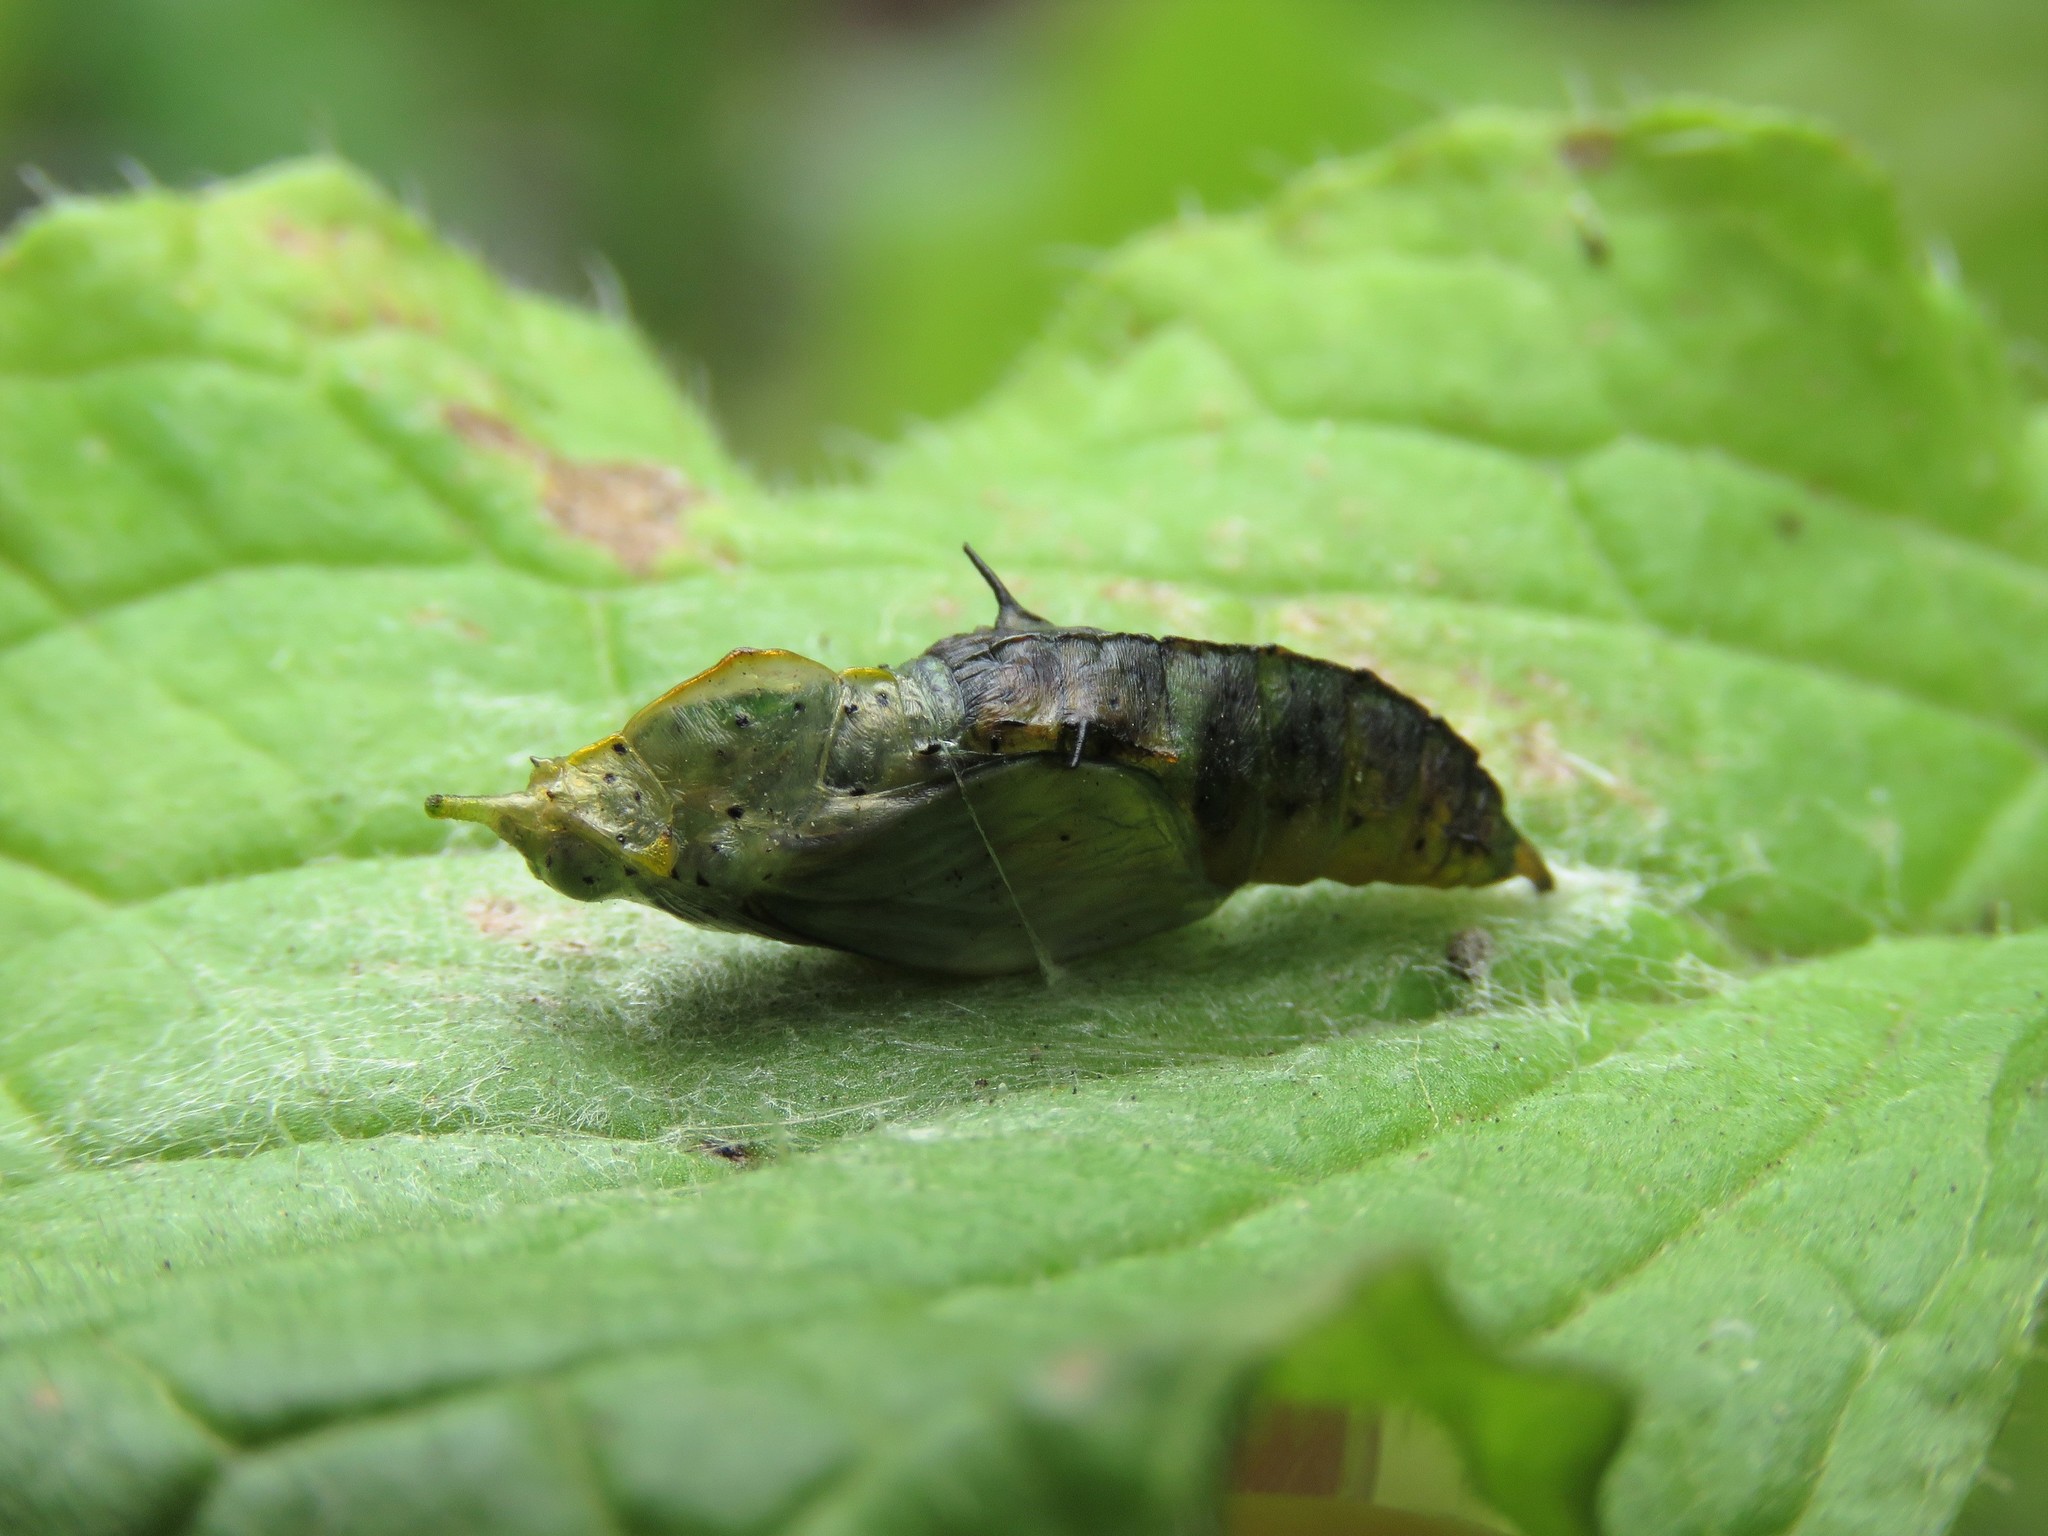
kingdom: Animalia
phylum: Arthropoda
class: Insecta
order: Lepidoptera
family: Pieridae
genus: Leptophobia
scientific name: Leptophobia aripa
